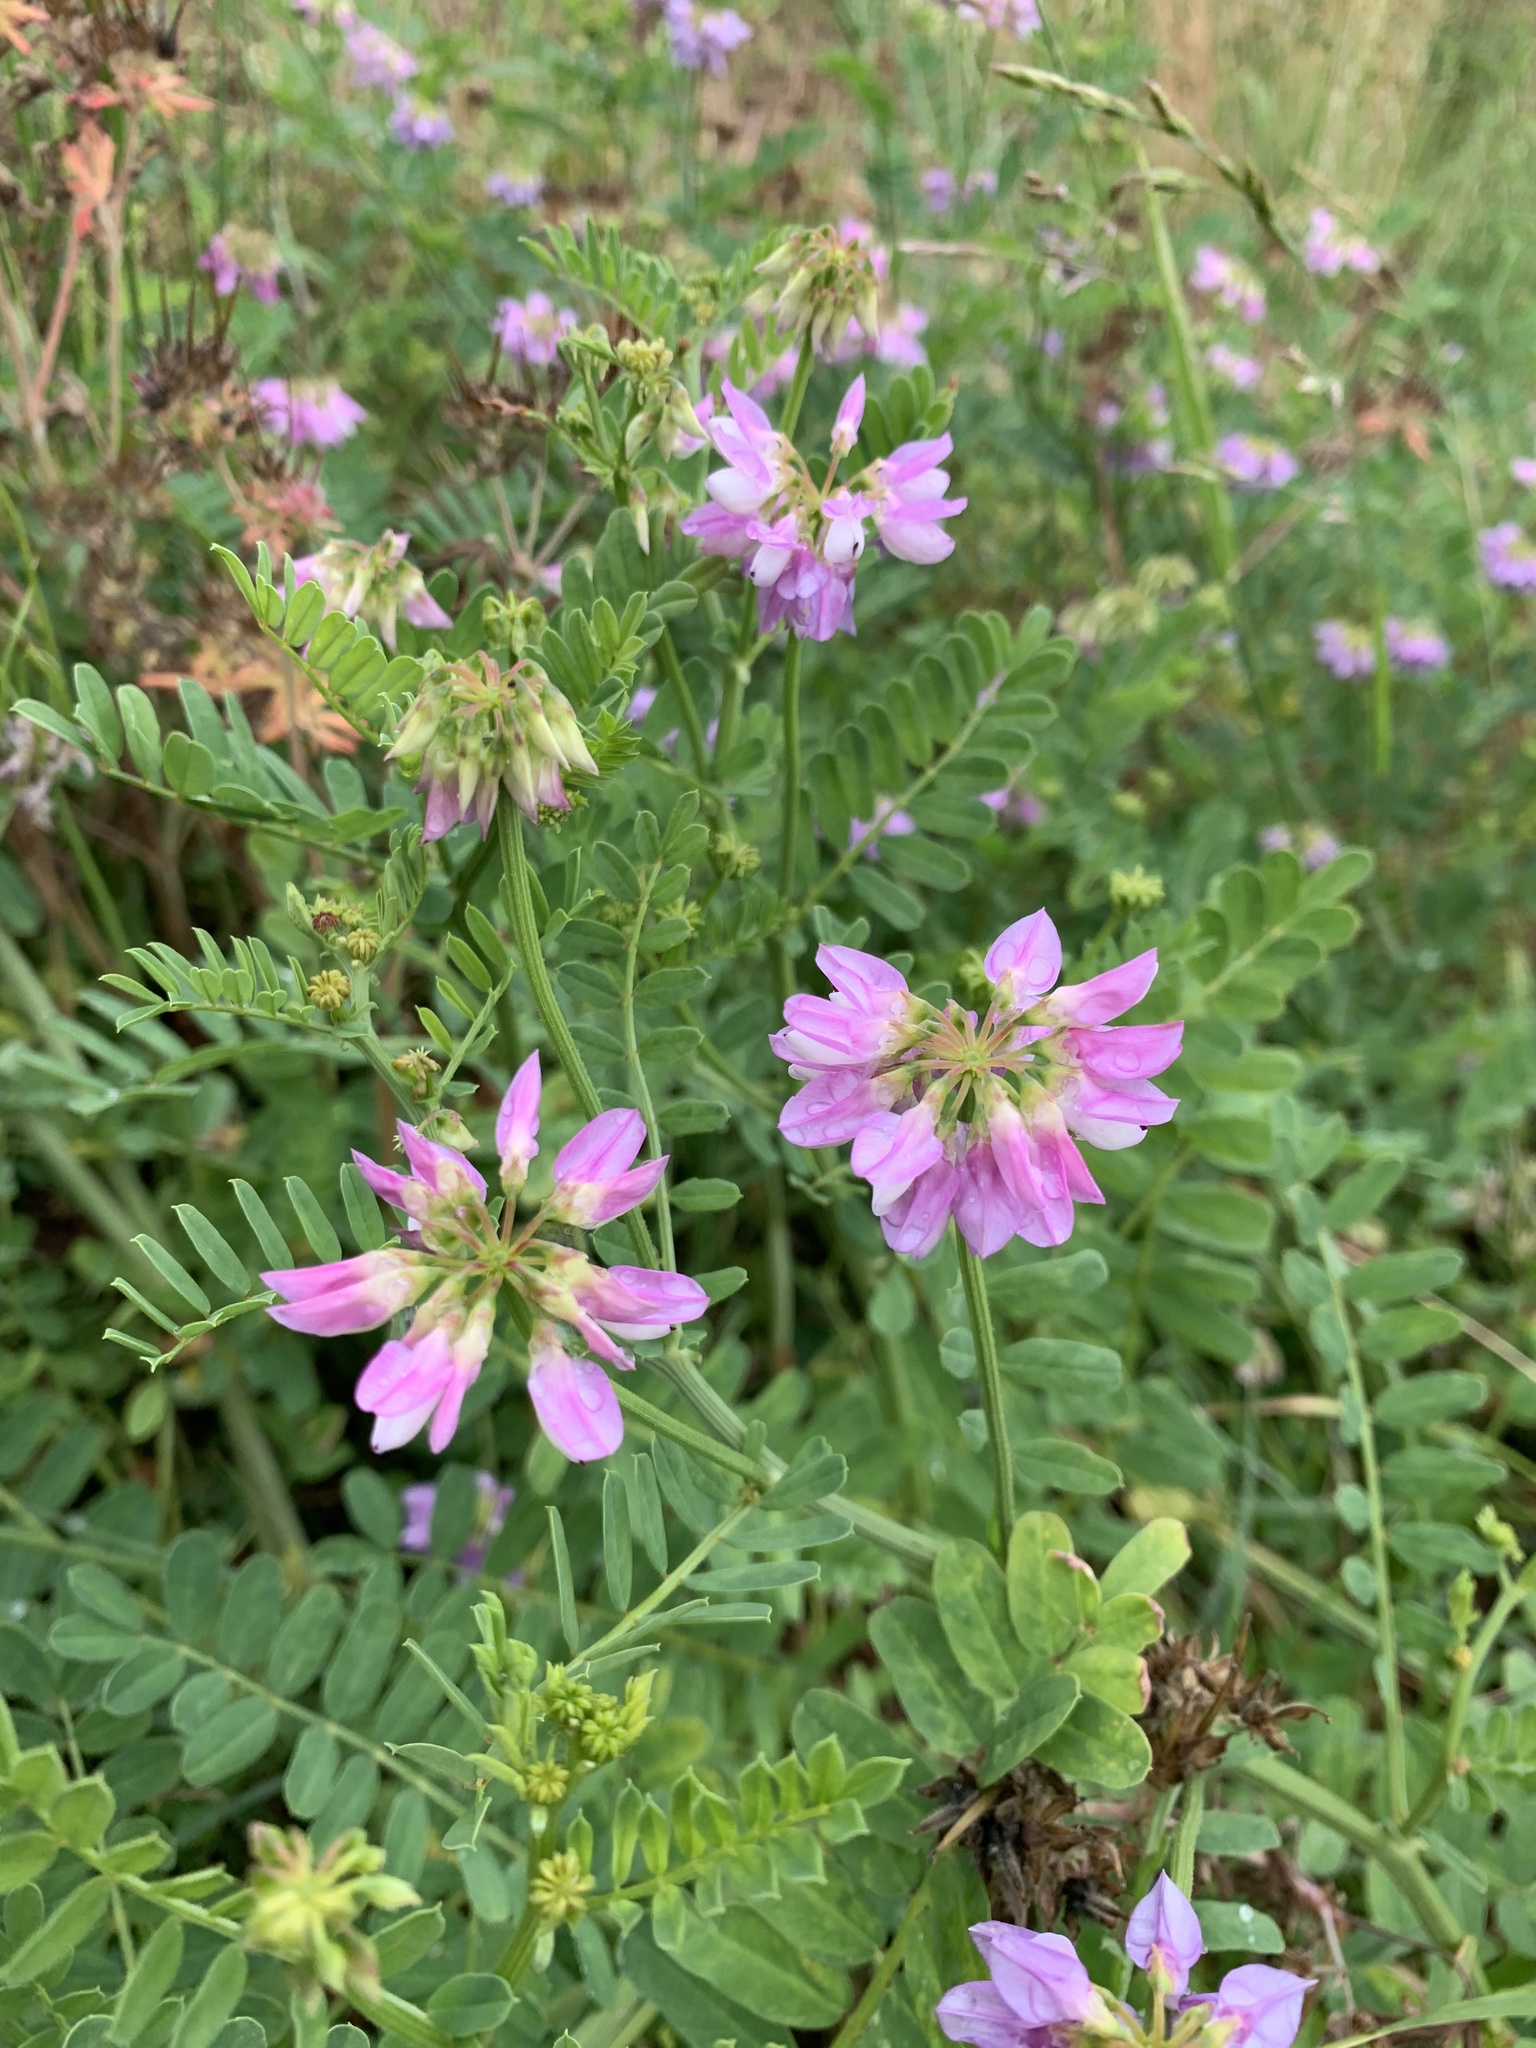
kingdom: Plantae
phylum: Tracheophyta
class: Magnoliopsida
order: Fabales
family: Fabaceae
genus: Coronilla
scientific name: Coronilla varia
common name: Crownvetch
